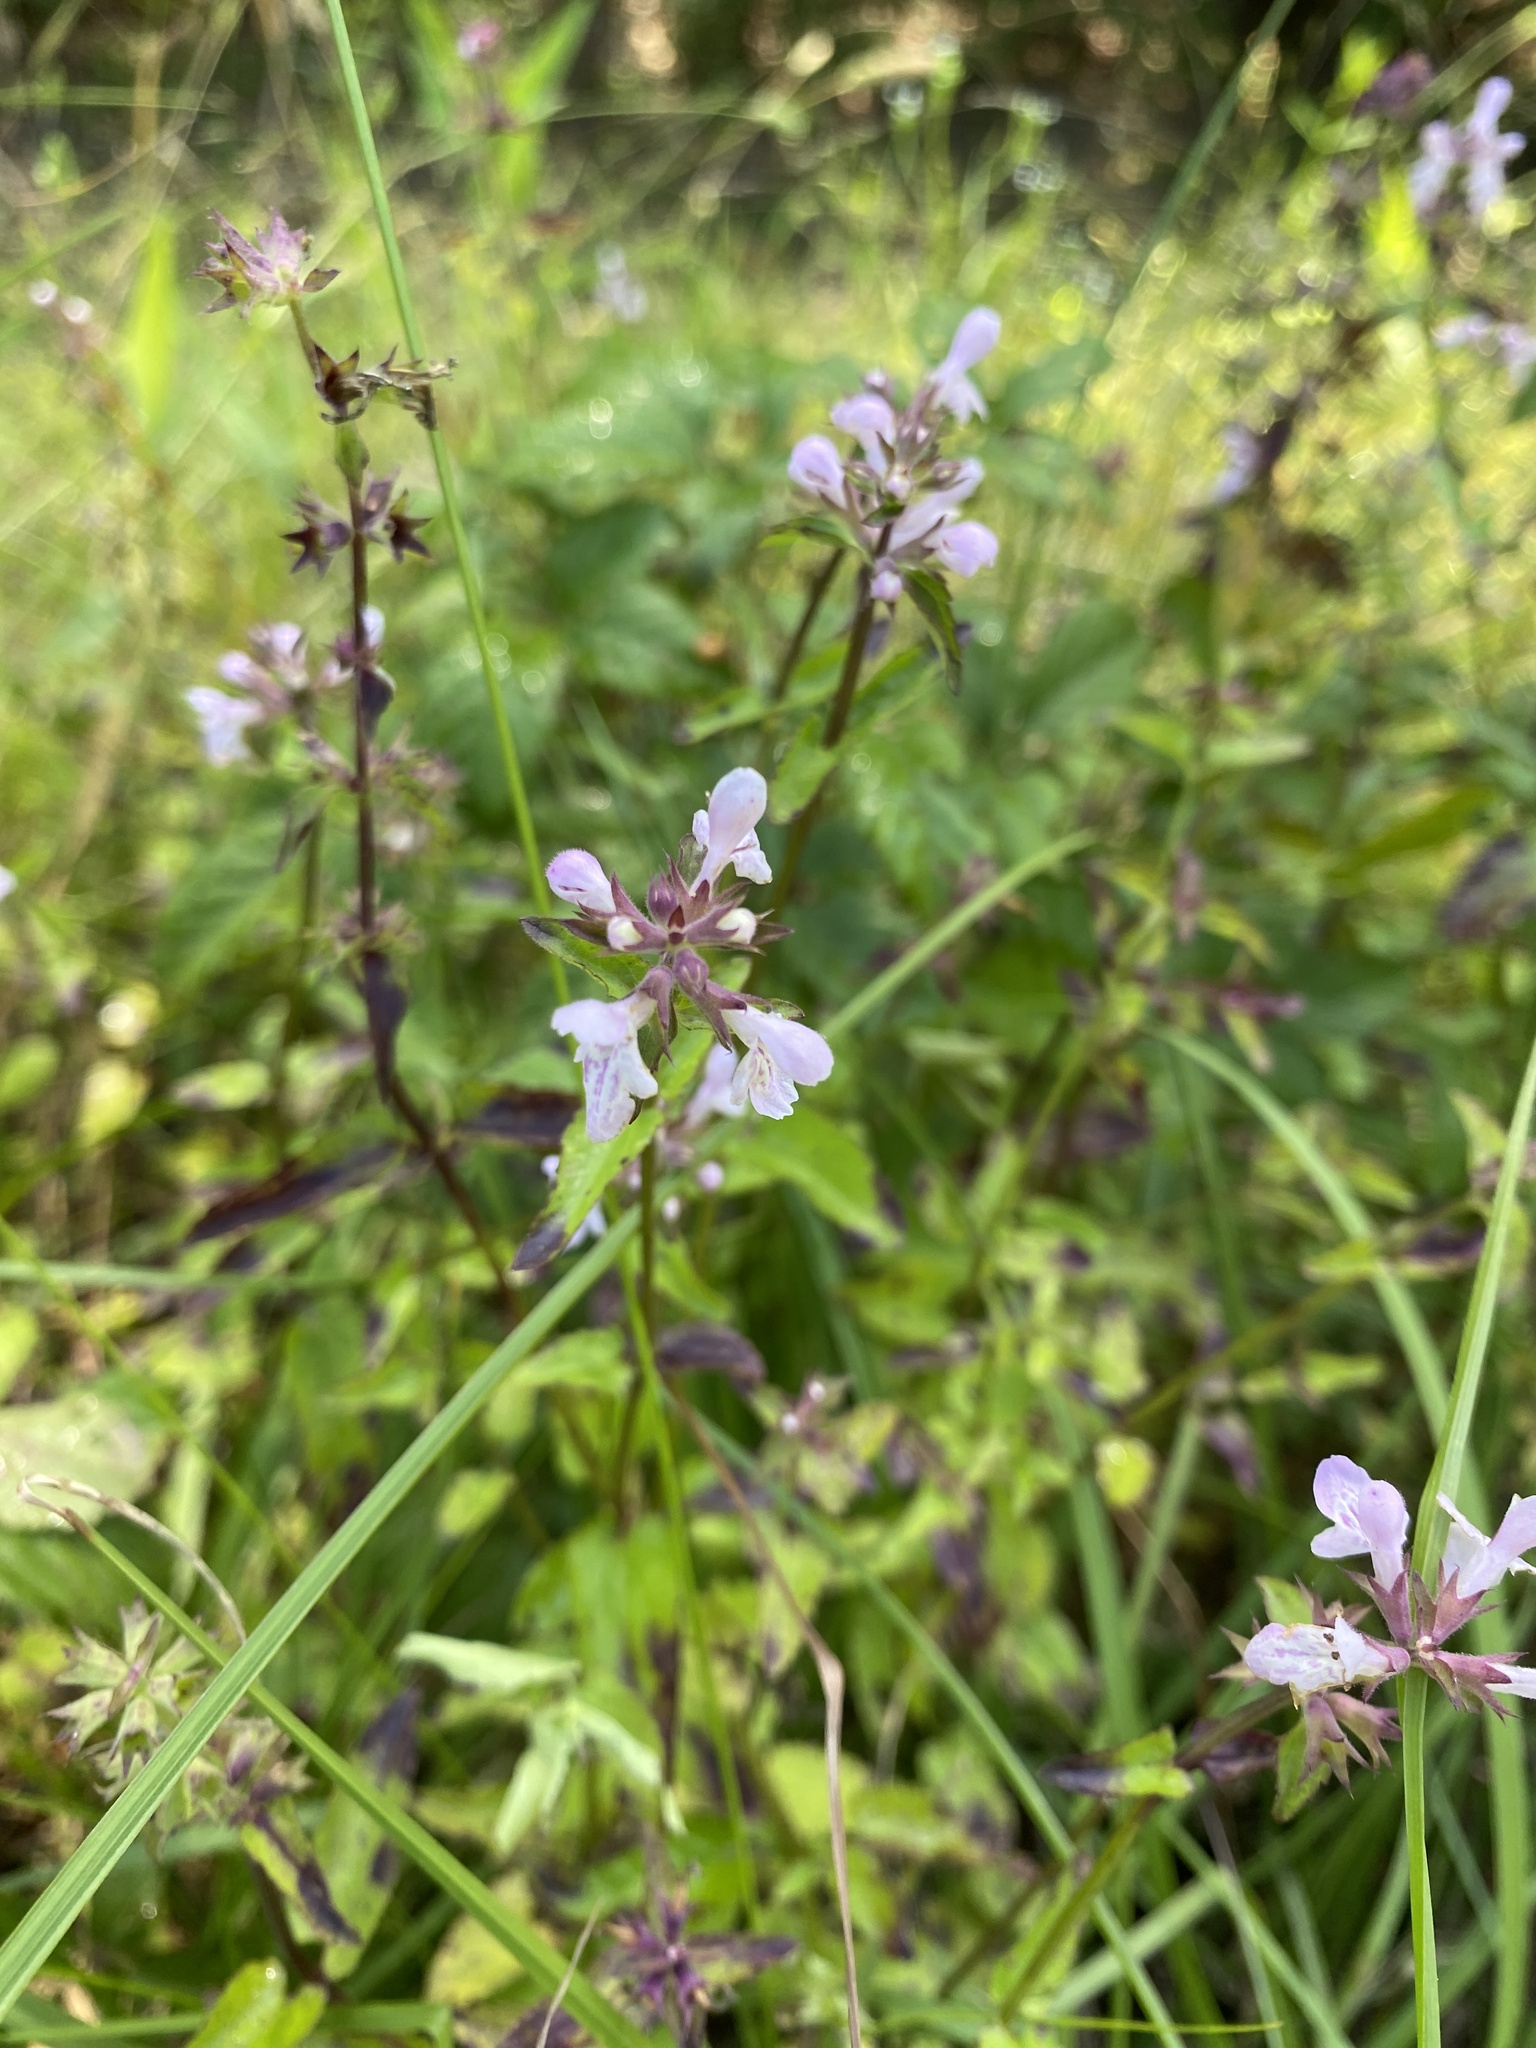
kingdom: Plantae
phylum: Tracheophyta
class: Magnoliopsida
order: Lamiales
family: Lamiaceae
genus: Stachys
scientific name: Stachys floridana
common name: Florida betony
